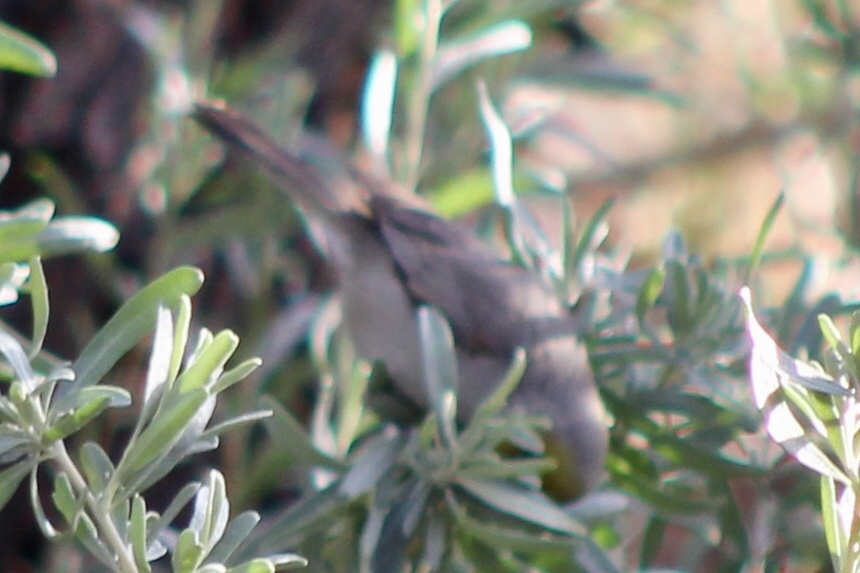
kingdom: Animalia
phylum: Chordata
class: Aves
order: Passeriformes
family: Remizidae
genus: Auriparus
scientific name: Auriparus flaviceps
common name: Verdin
